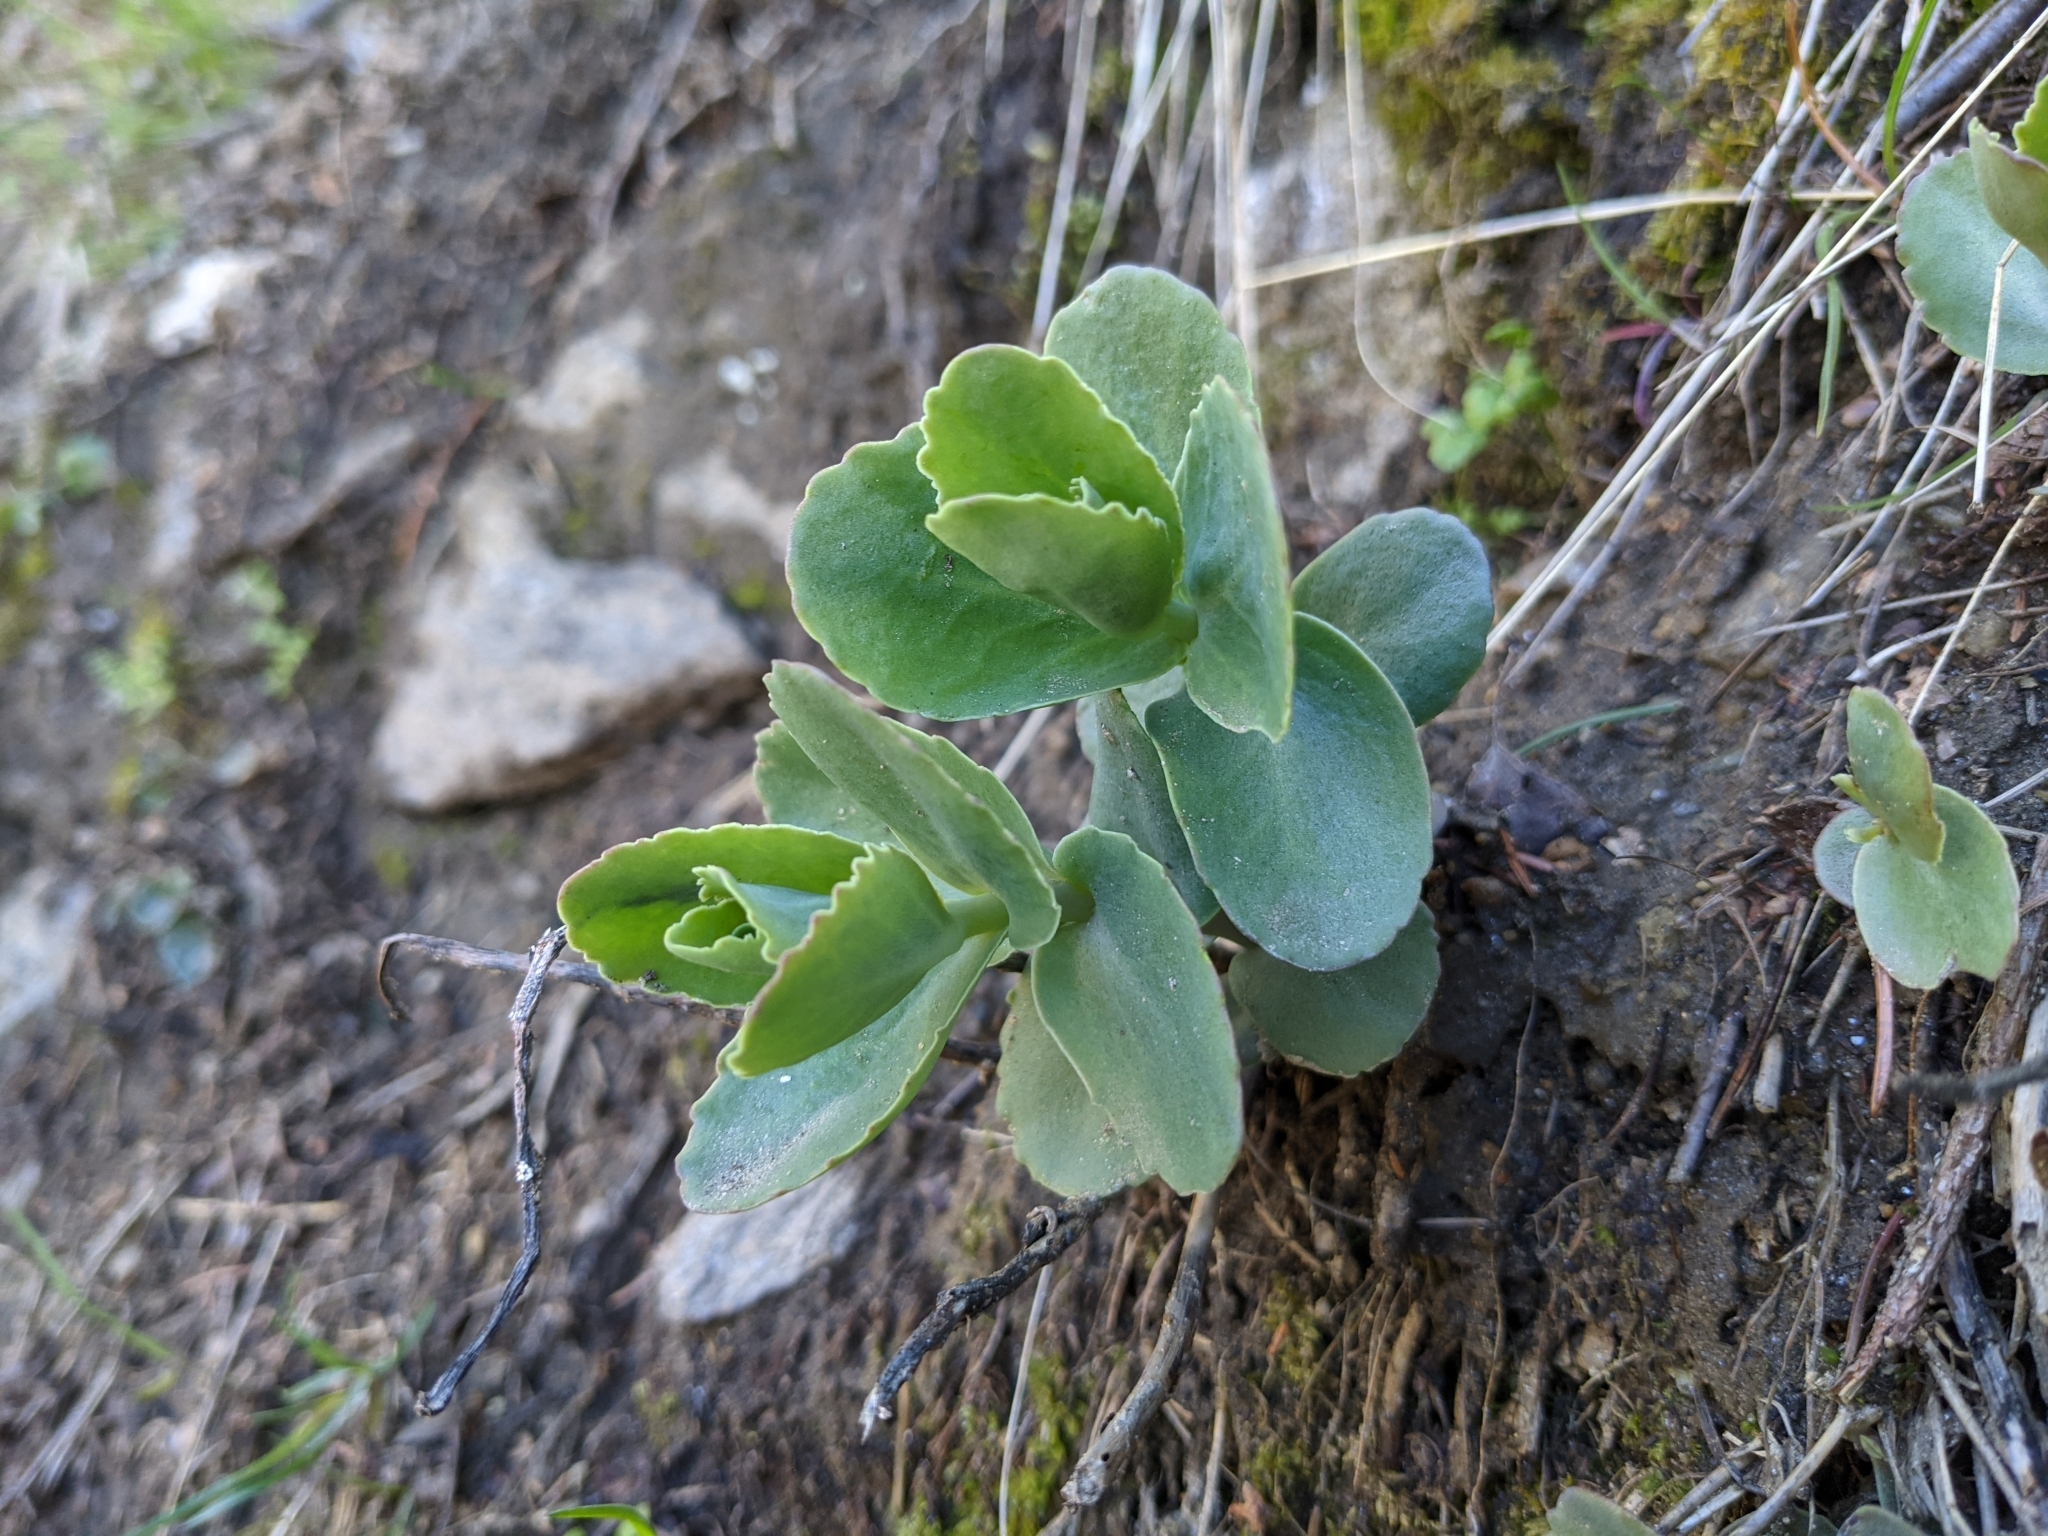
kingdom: Plantae
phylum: Tracheophyta
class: Magnoliopsida
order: Saxifragales
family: Crassulaceae
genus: Hylotelephium
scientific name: Hylotelephium maximum
